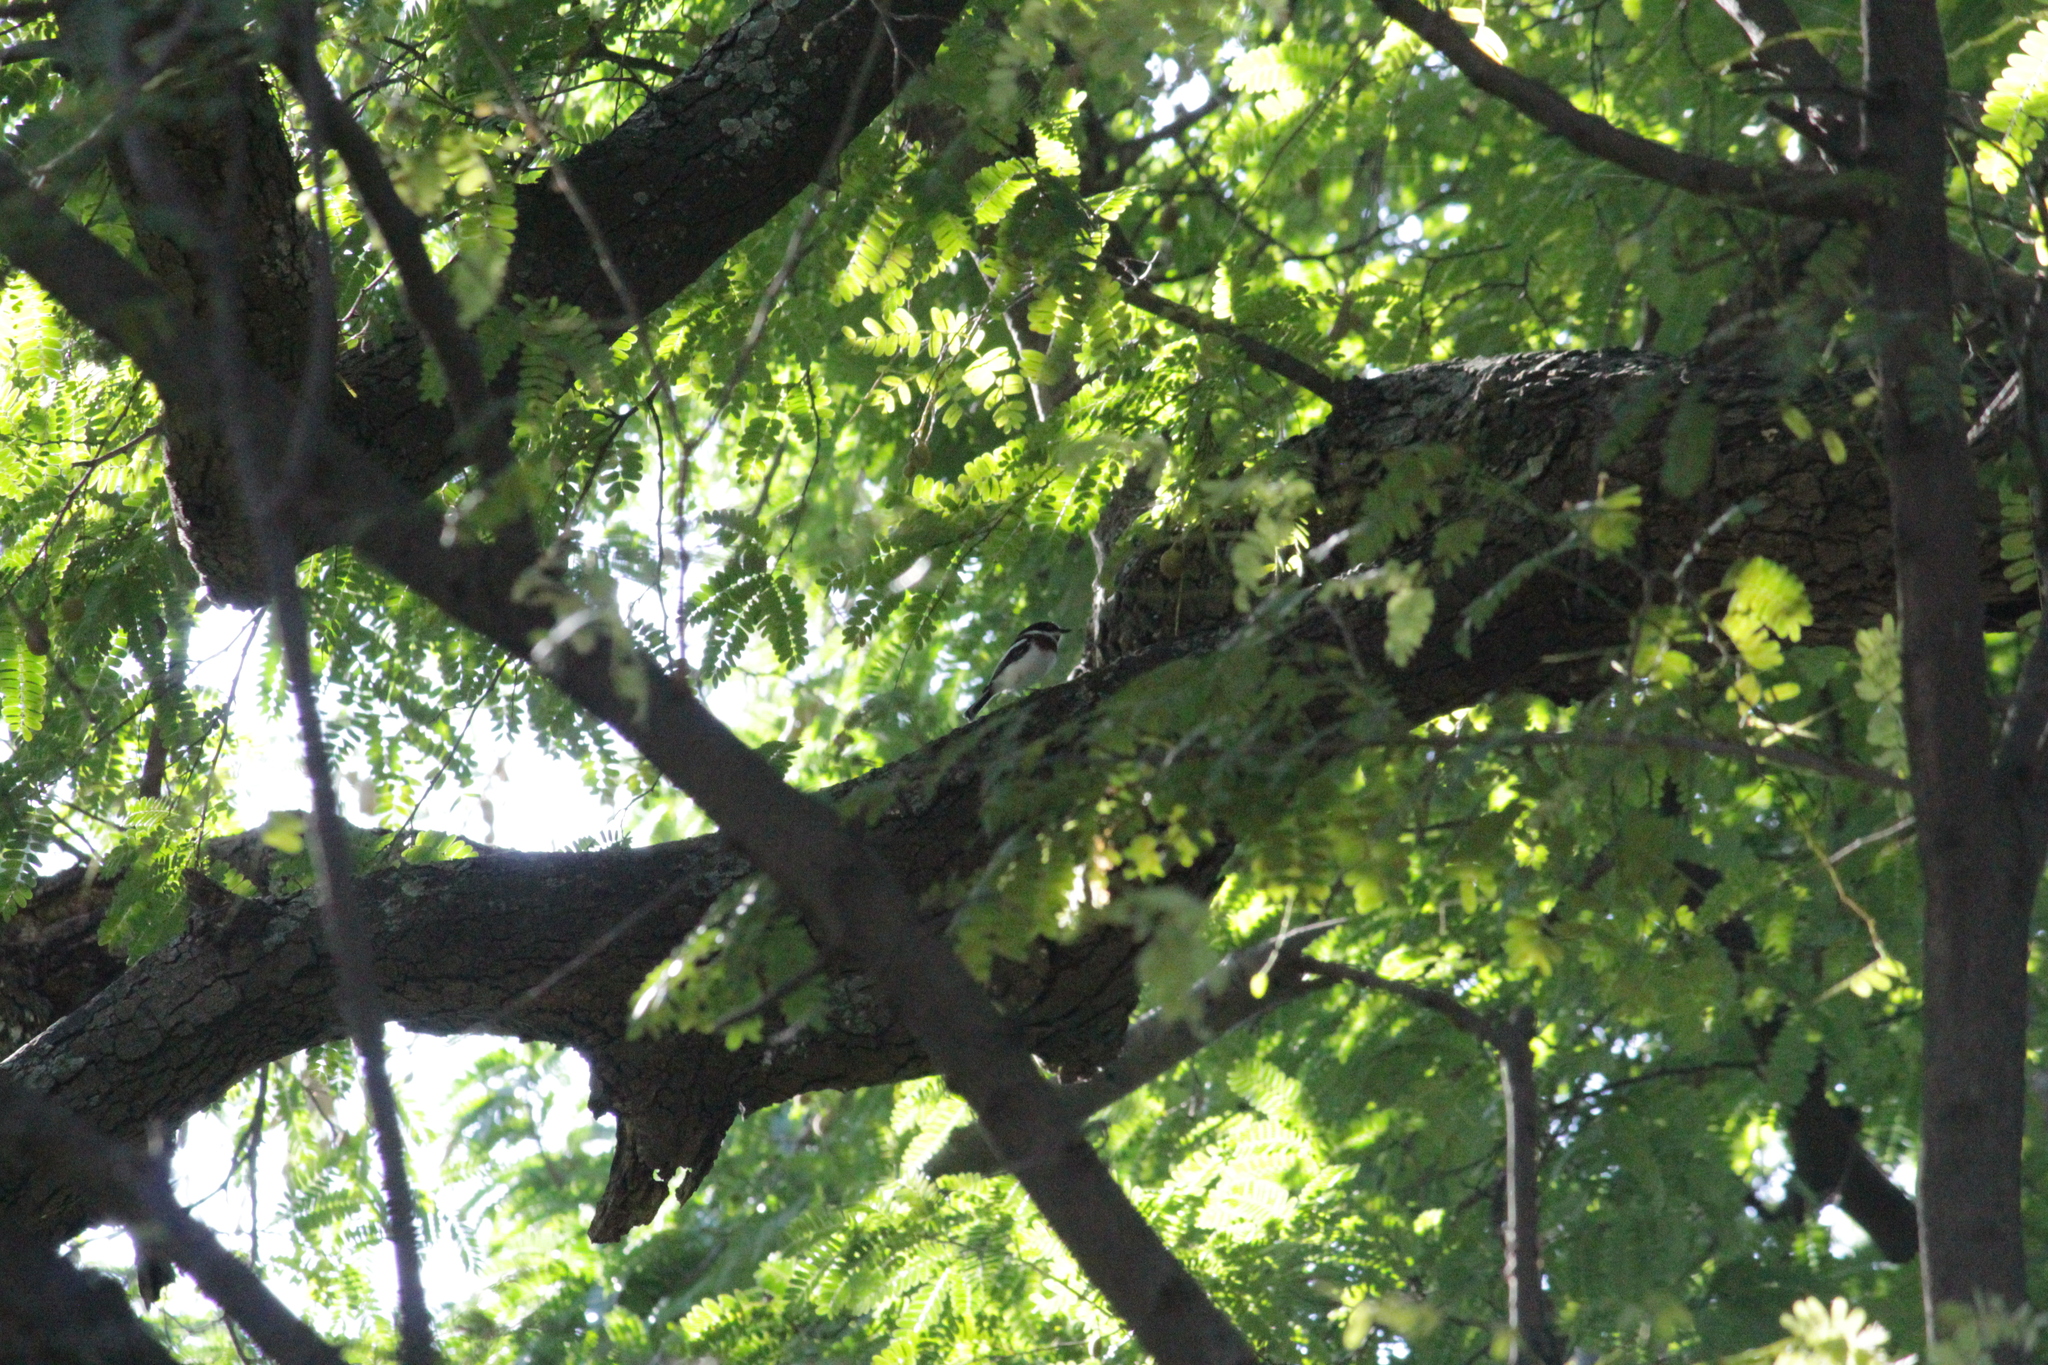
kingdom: Animalia
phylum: Chordata
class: Aves
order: Passeriformes
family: Platysteiridae
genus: Batis
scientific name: Batis molitor
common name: Chinspot batis
